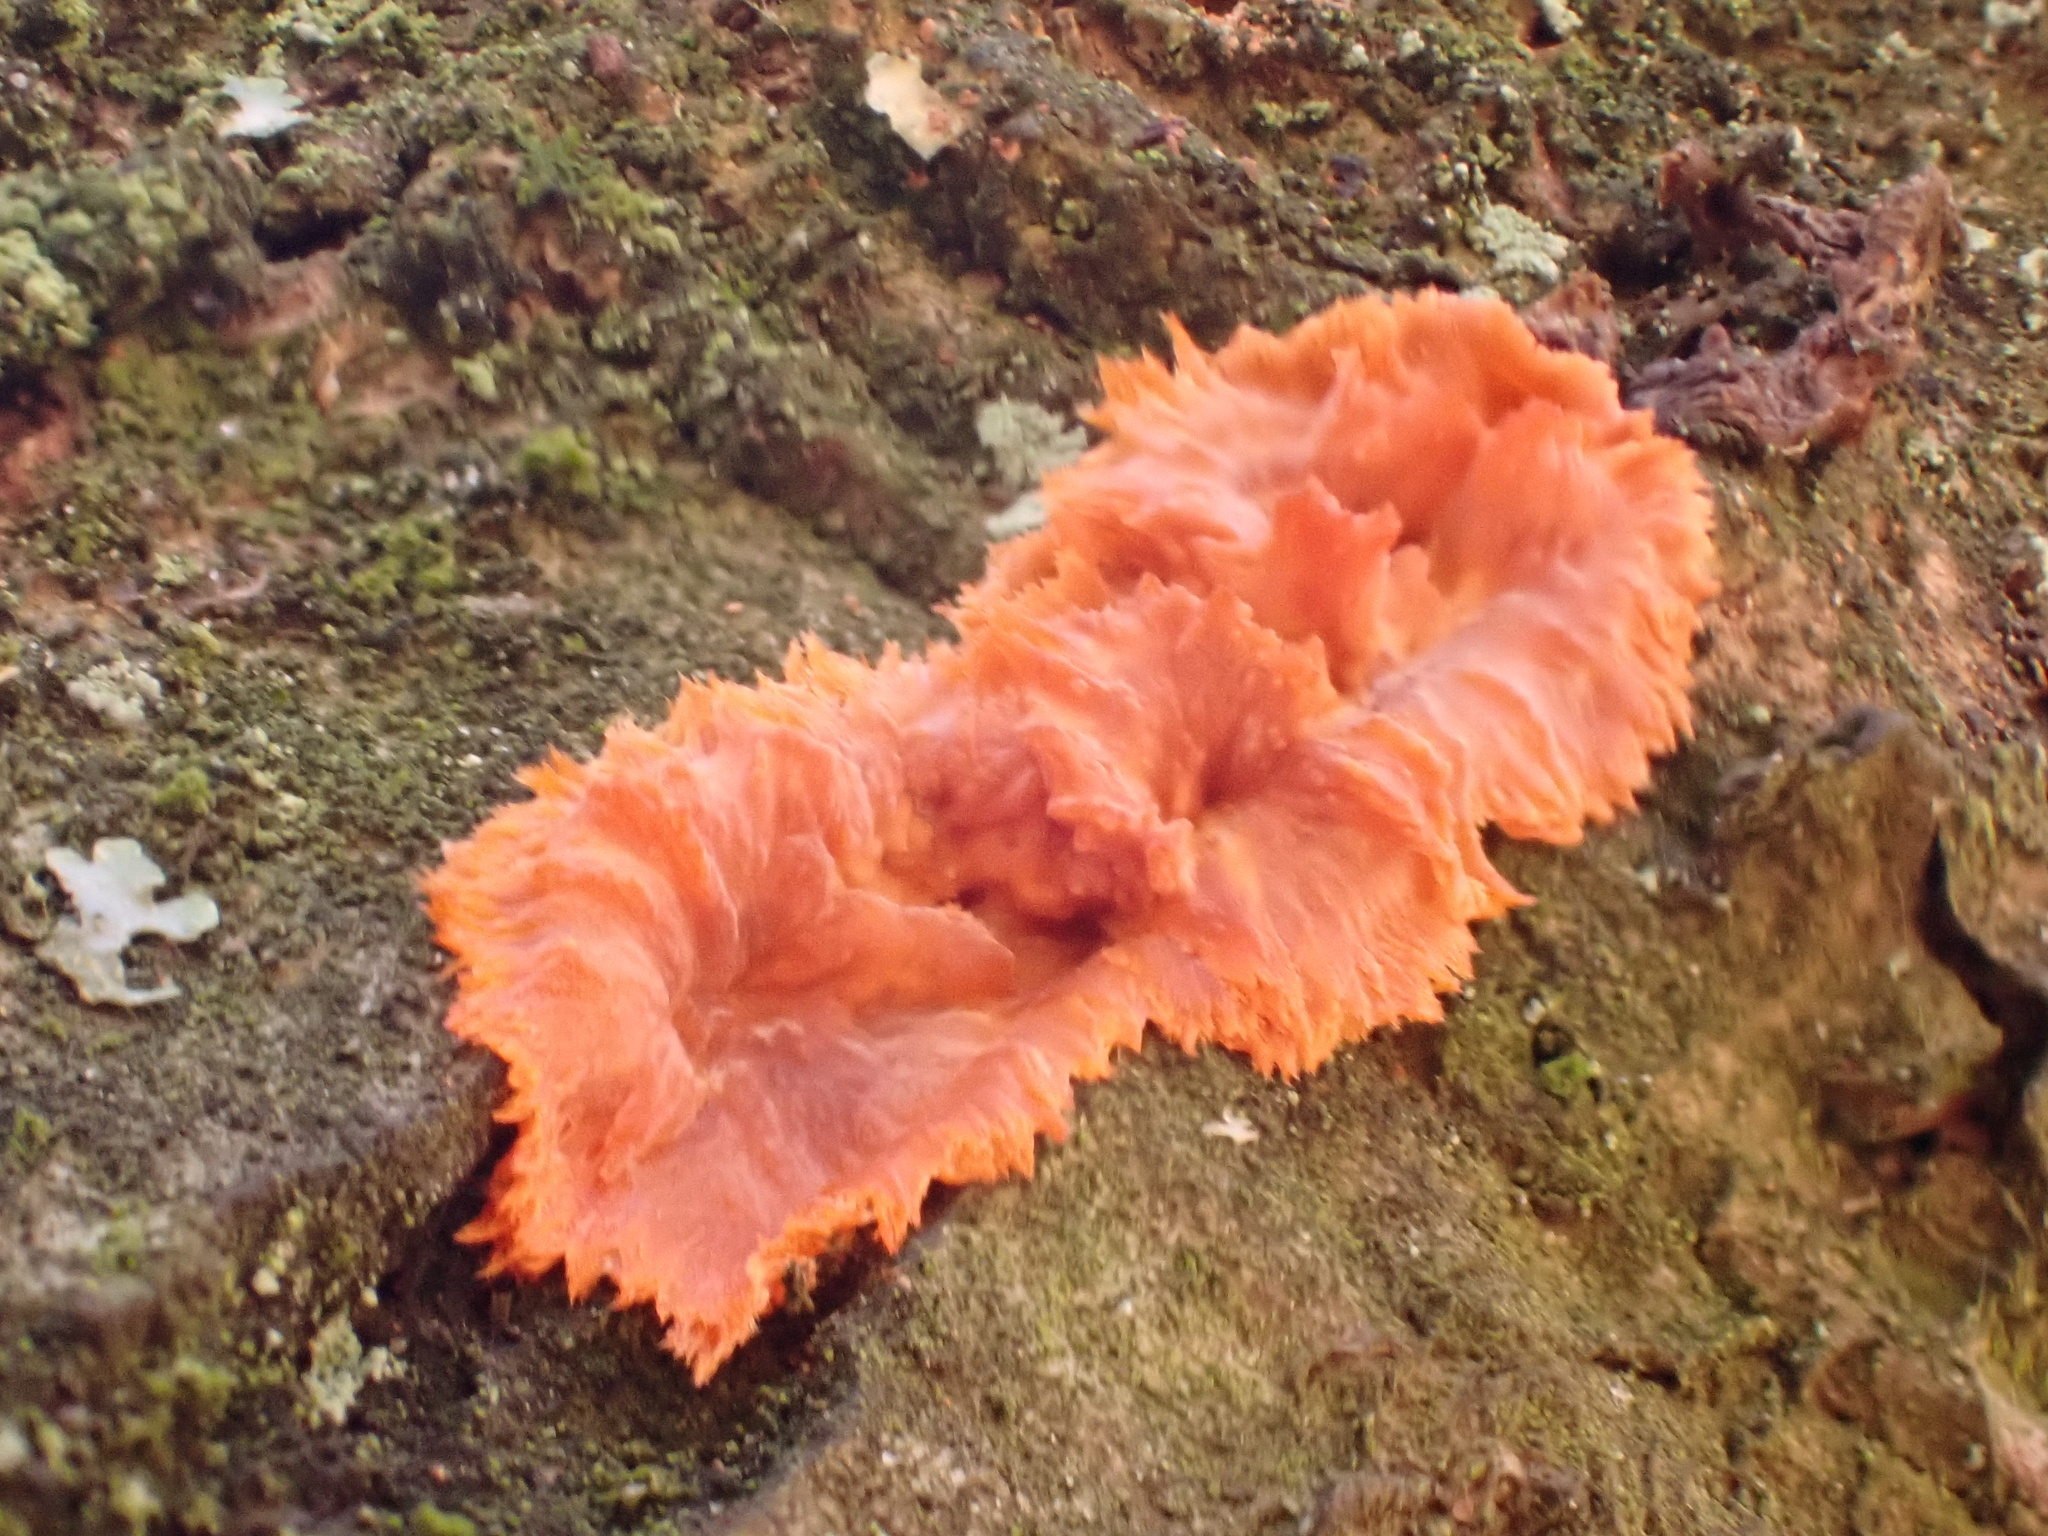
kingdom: Fungi
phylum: Basidiomycota
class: Agaricomycetes
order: Polyporales
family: Meruliaceae
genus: Phlebia
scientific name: Phlebia radiata
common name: Wrinkled crust
